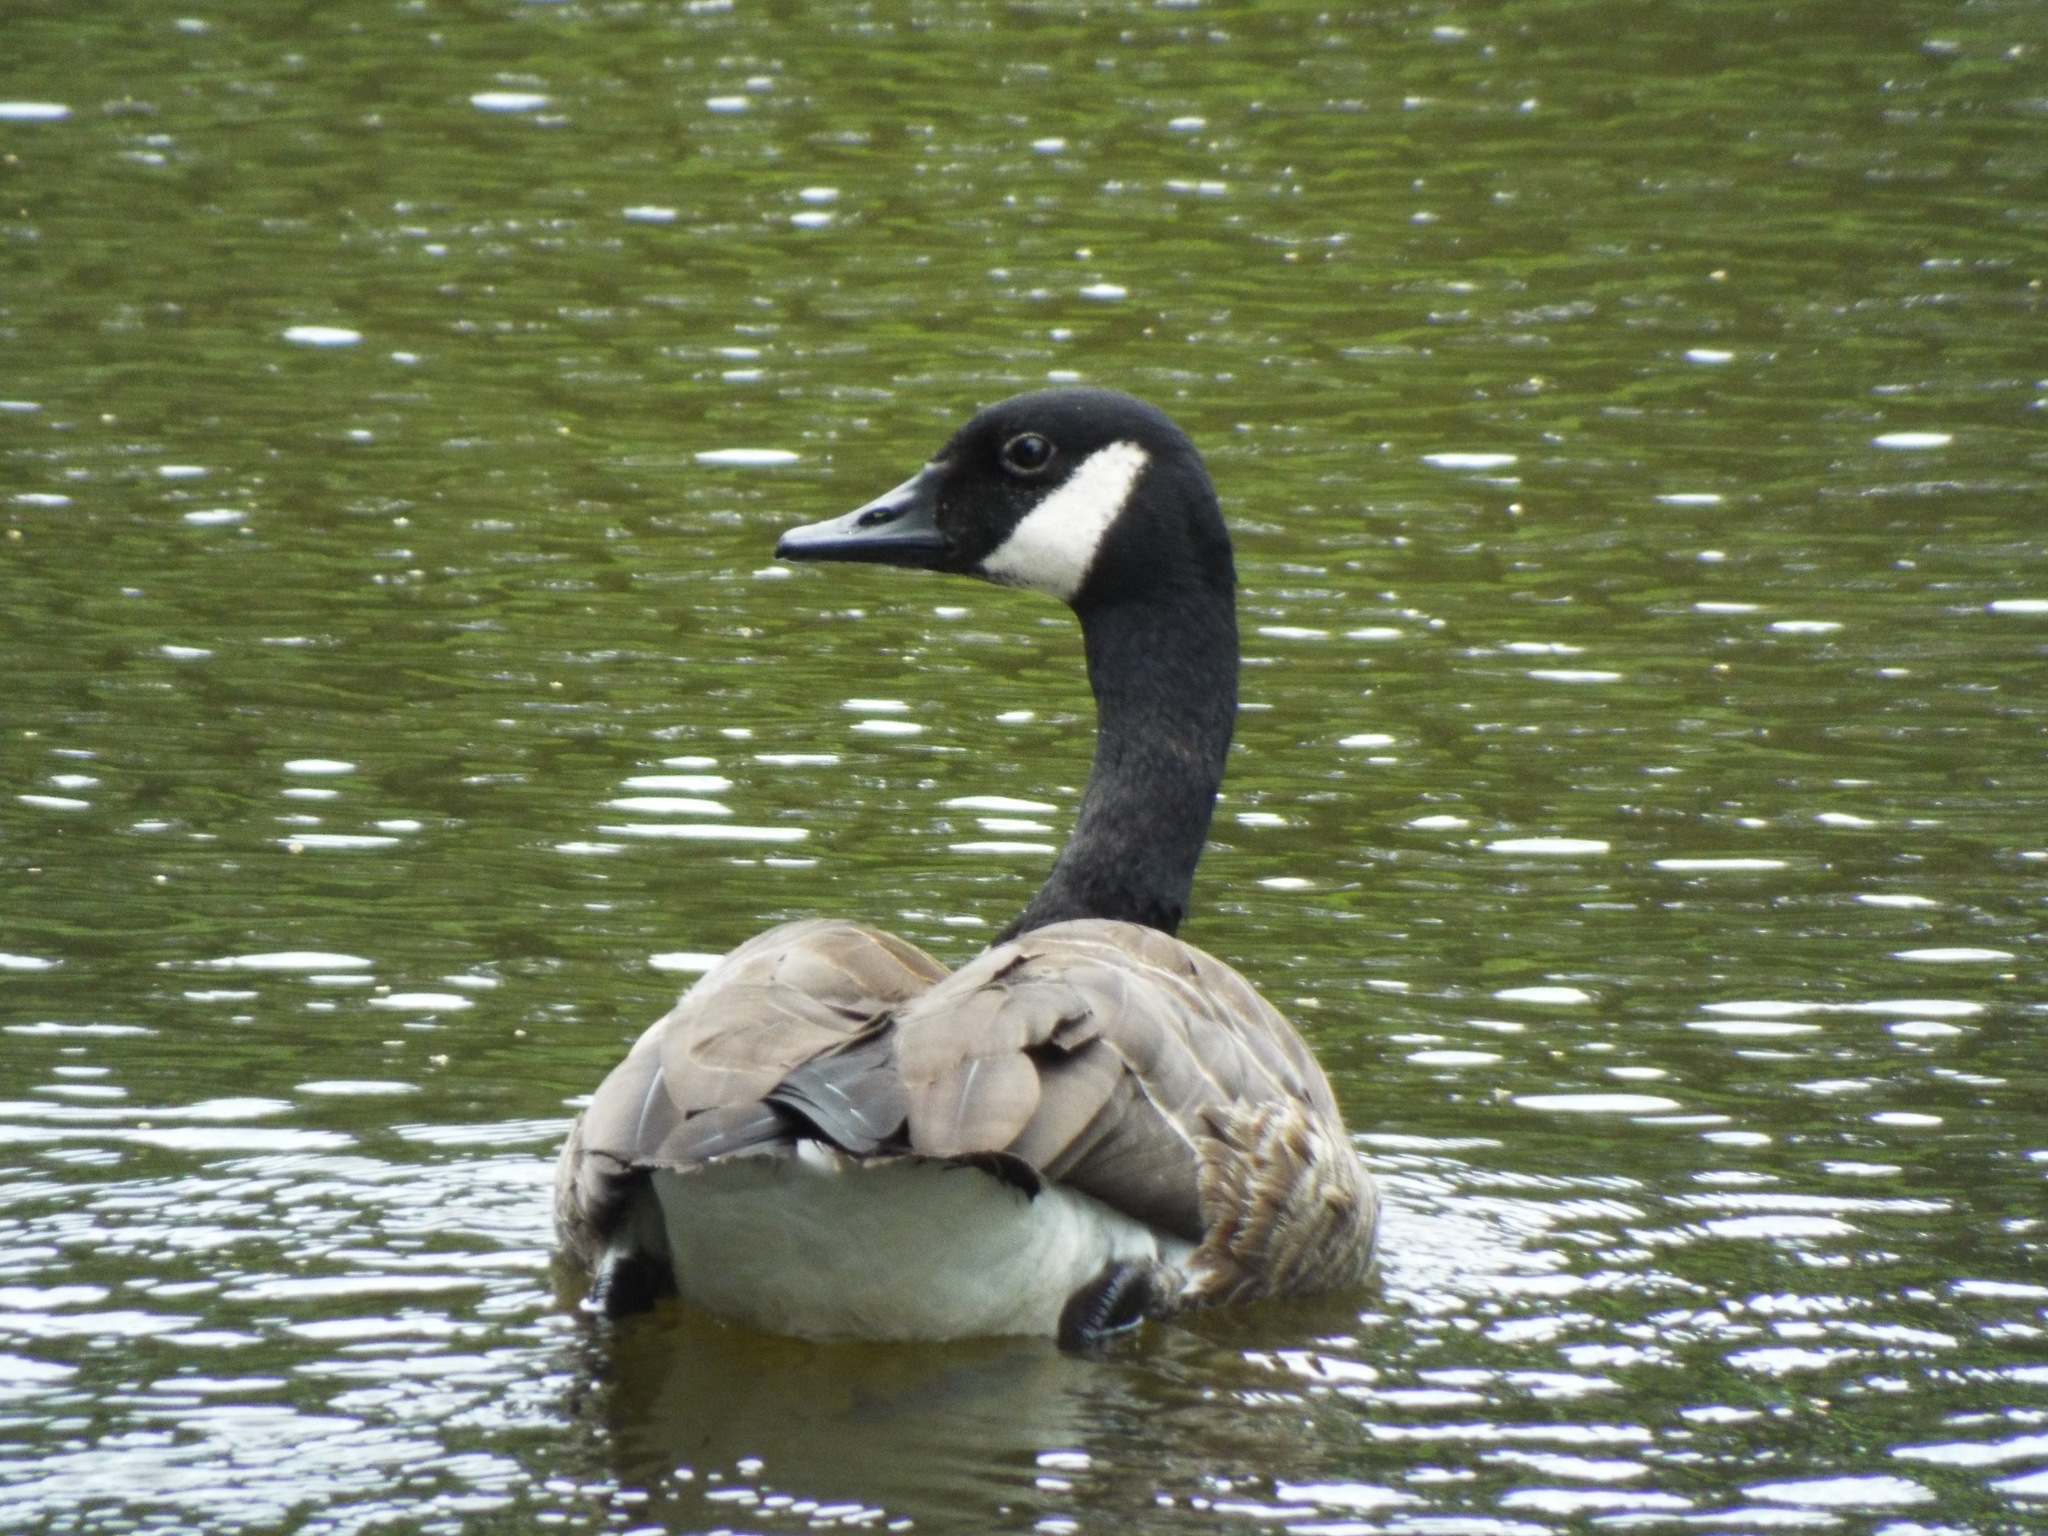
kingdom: Animalia
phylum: Chordata
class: Aves
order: Anseriformes
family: Anatidae
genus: Branta
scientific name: Branta canadensis
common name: Canada goose
